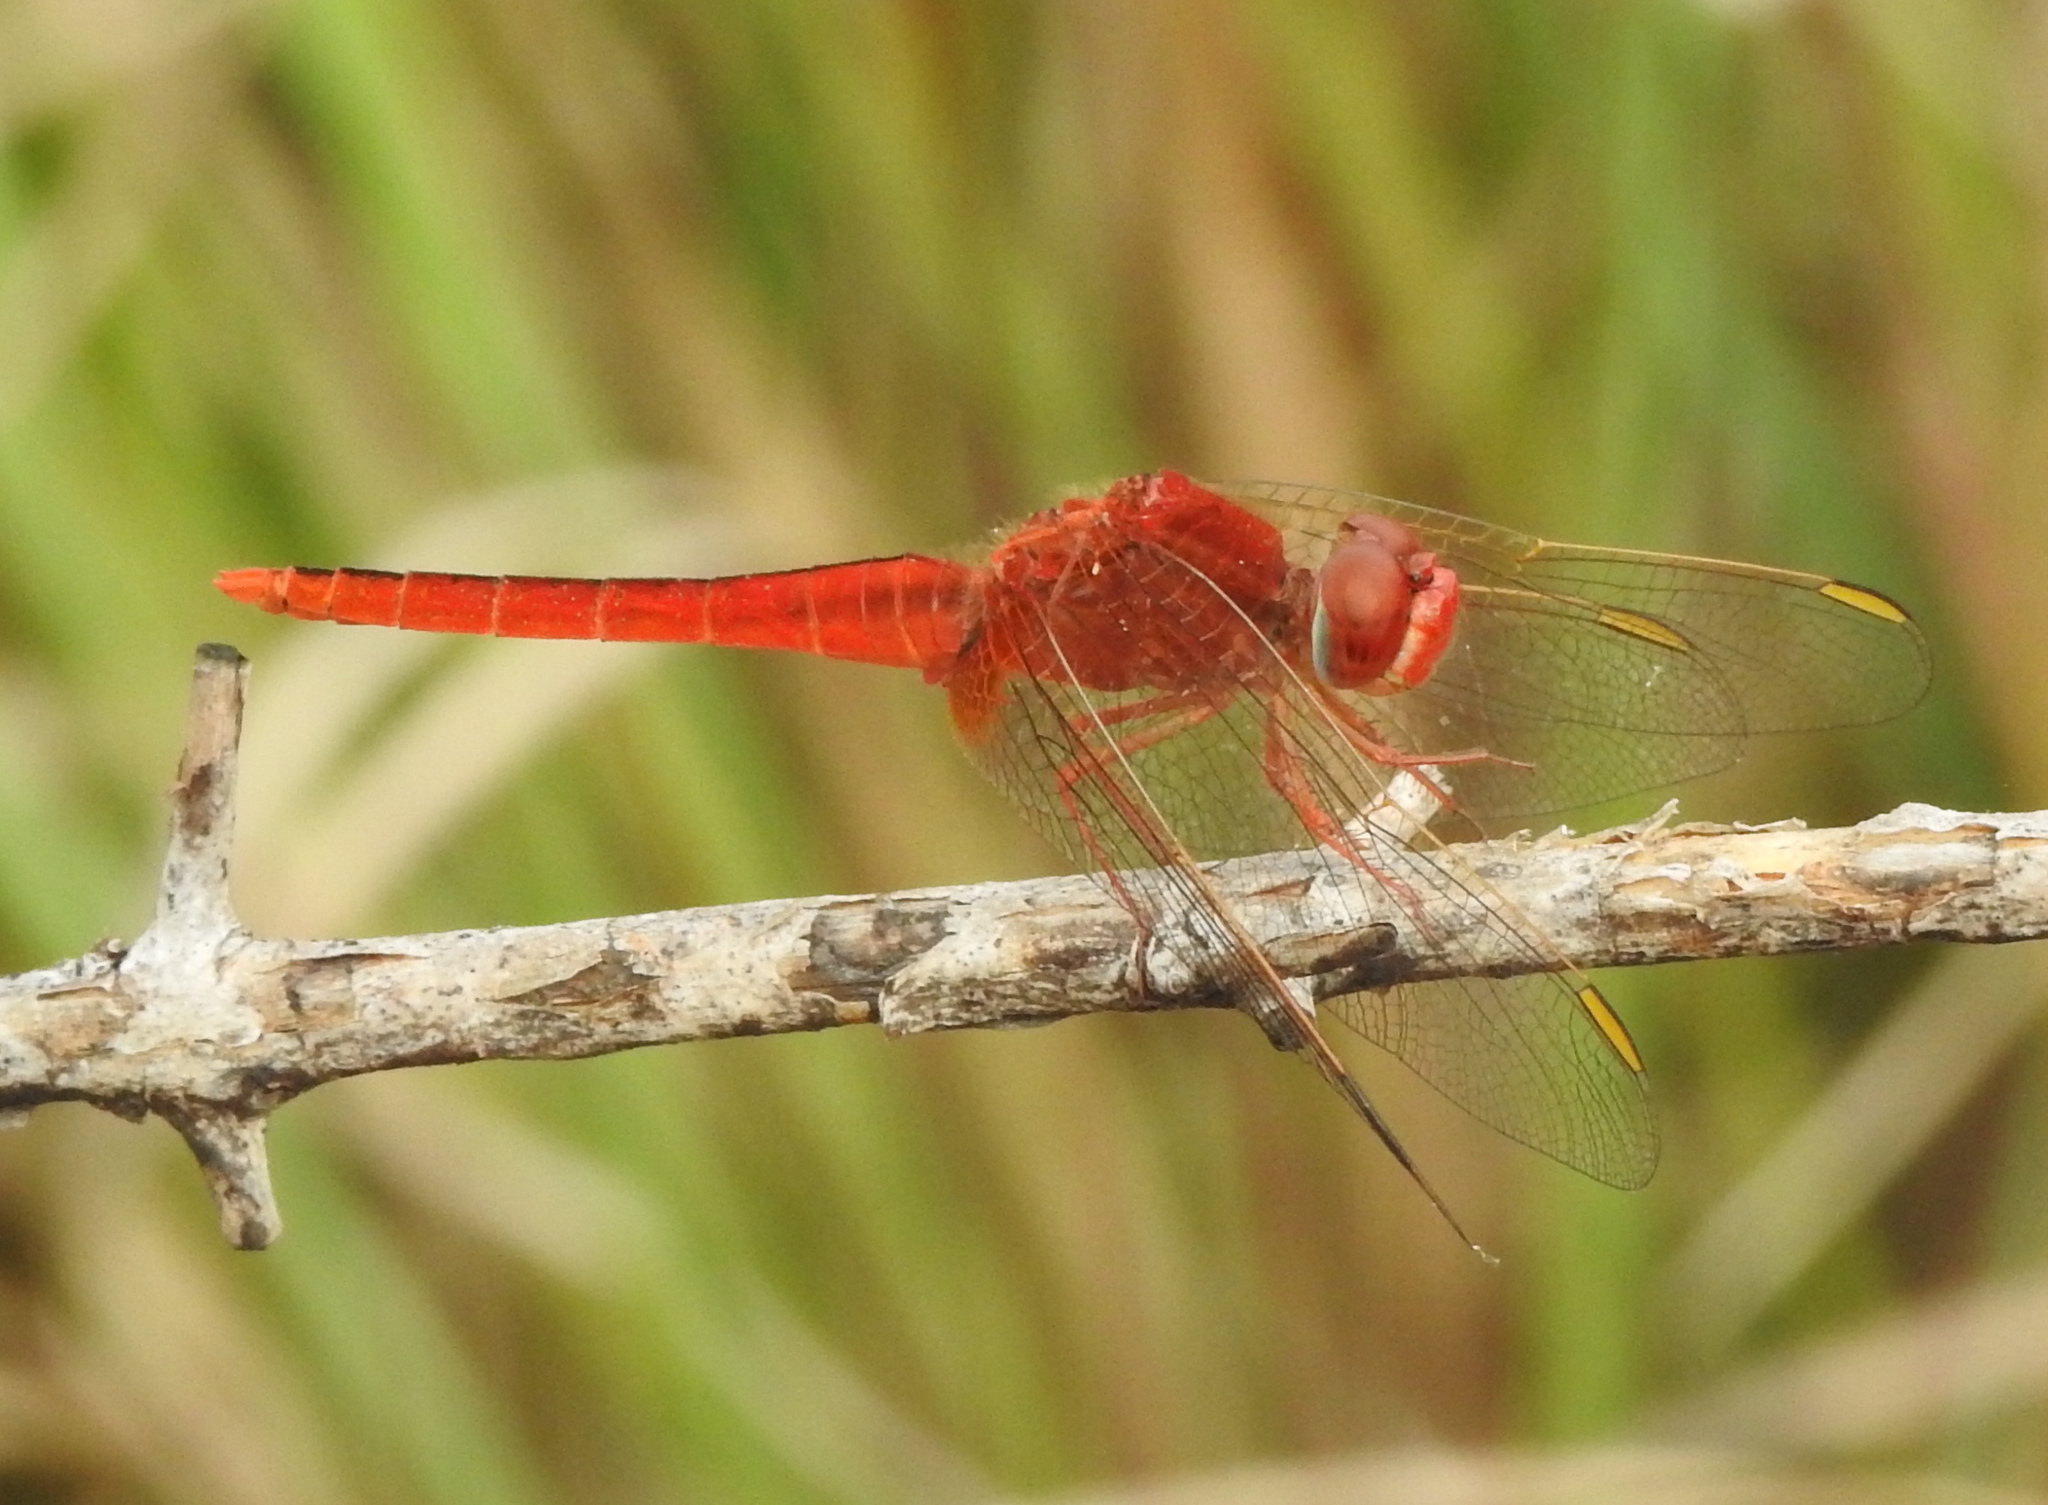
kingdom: Animalia
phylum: Arthropoda
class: Insecta
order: Odonata
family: Libellulidae
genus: Crocothemis
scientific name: Crocothemis servilia
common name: Scarlet skimmer
